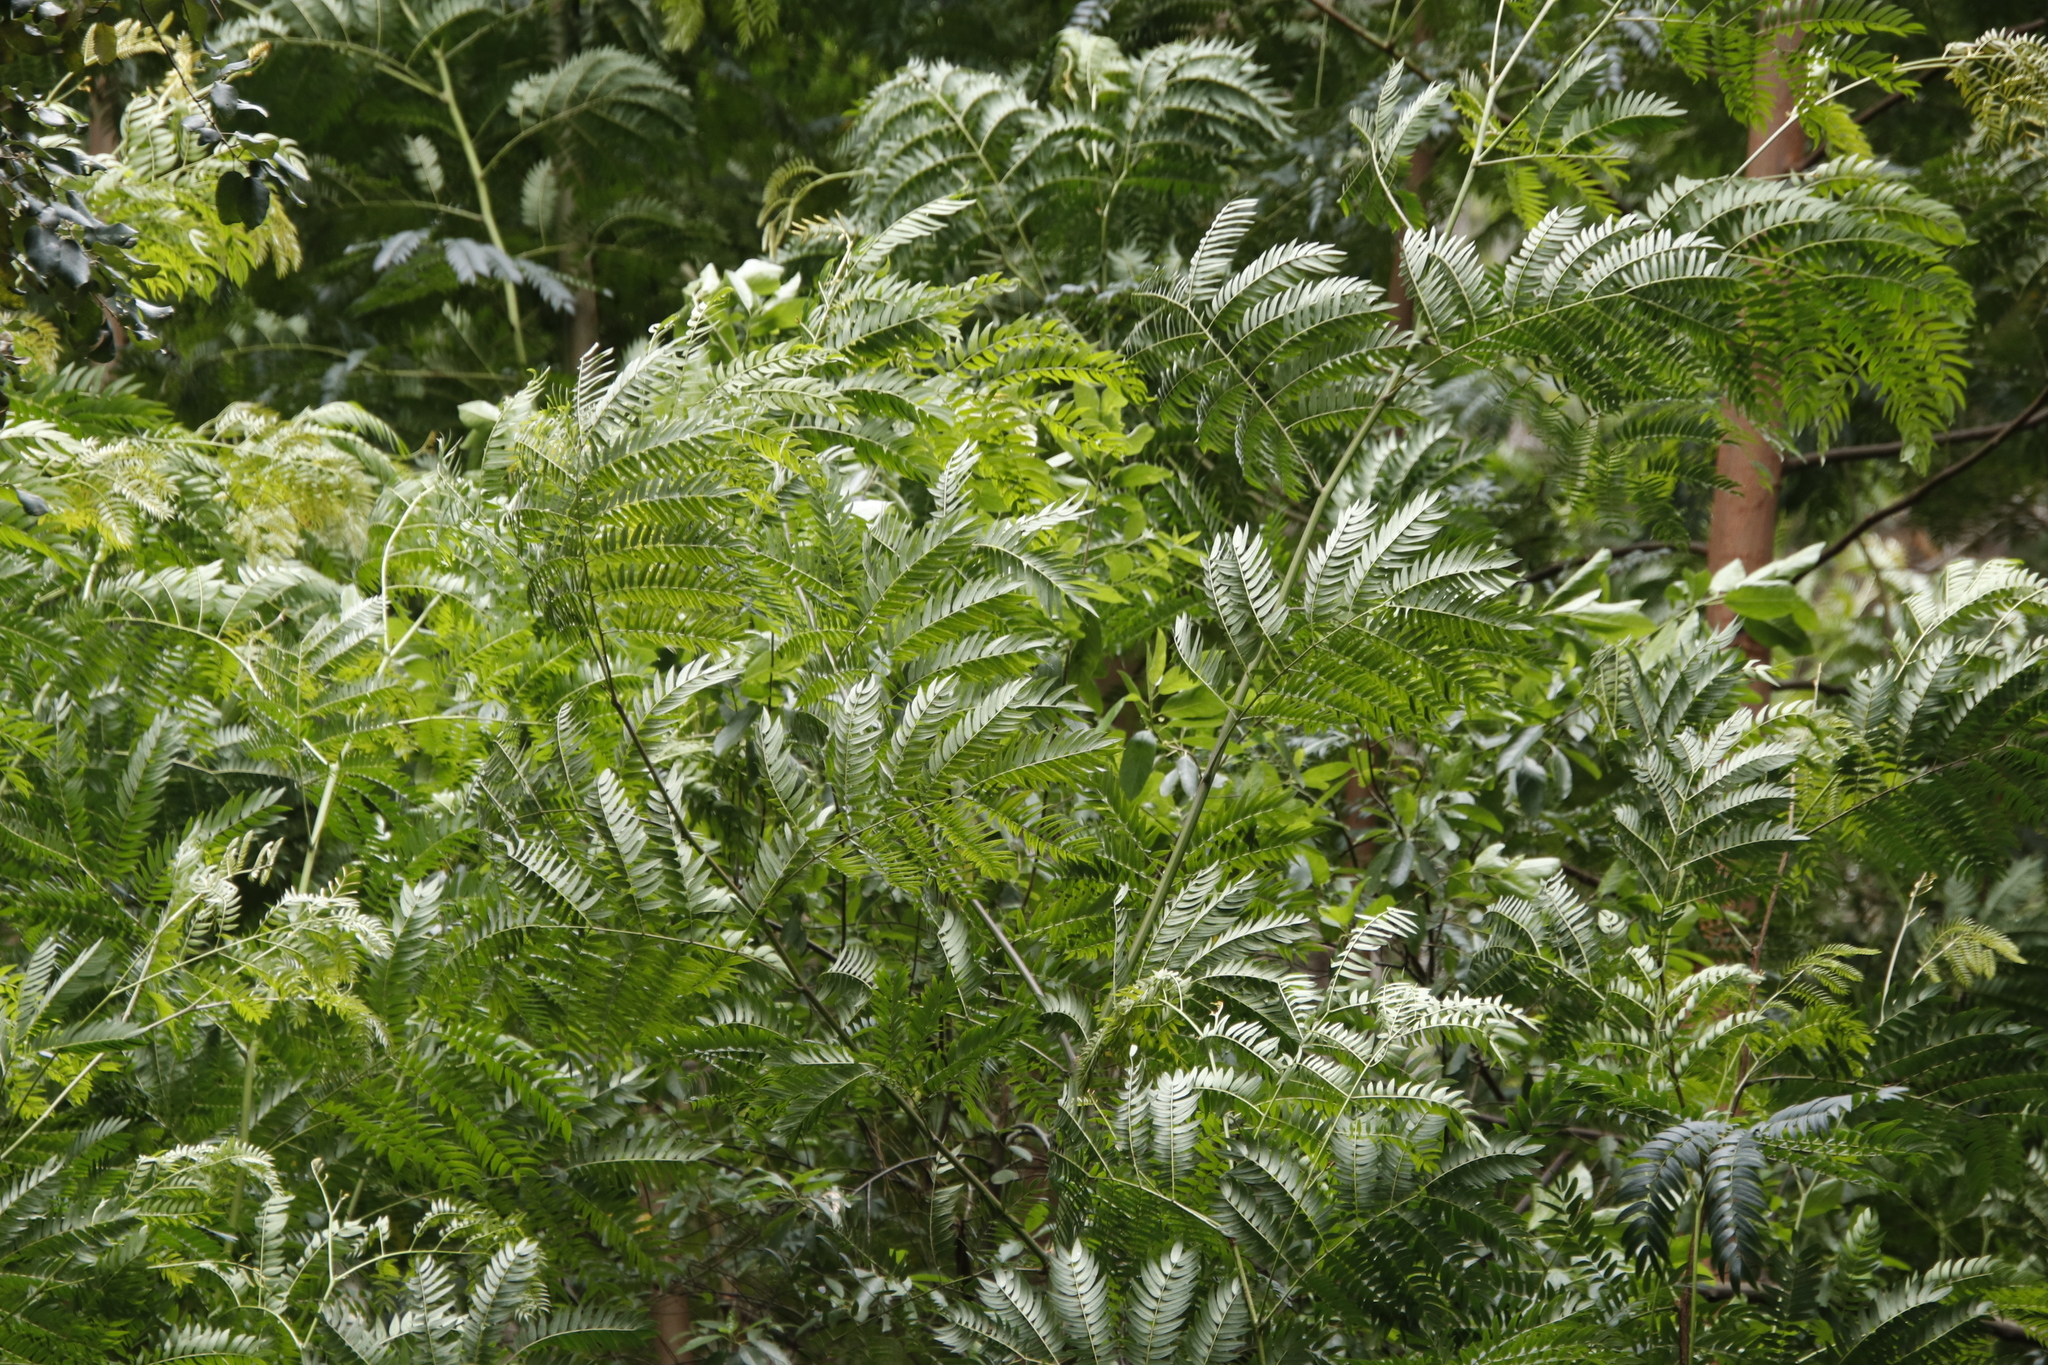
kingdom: Plantae
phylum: Tracheophyta
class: Magnoliopsida
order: Fabales
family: Fabaceae
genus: Acacia
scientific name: Acacia elata
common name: Cedar wattle
